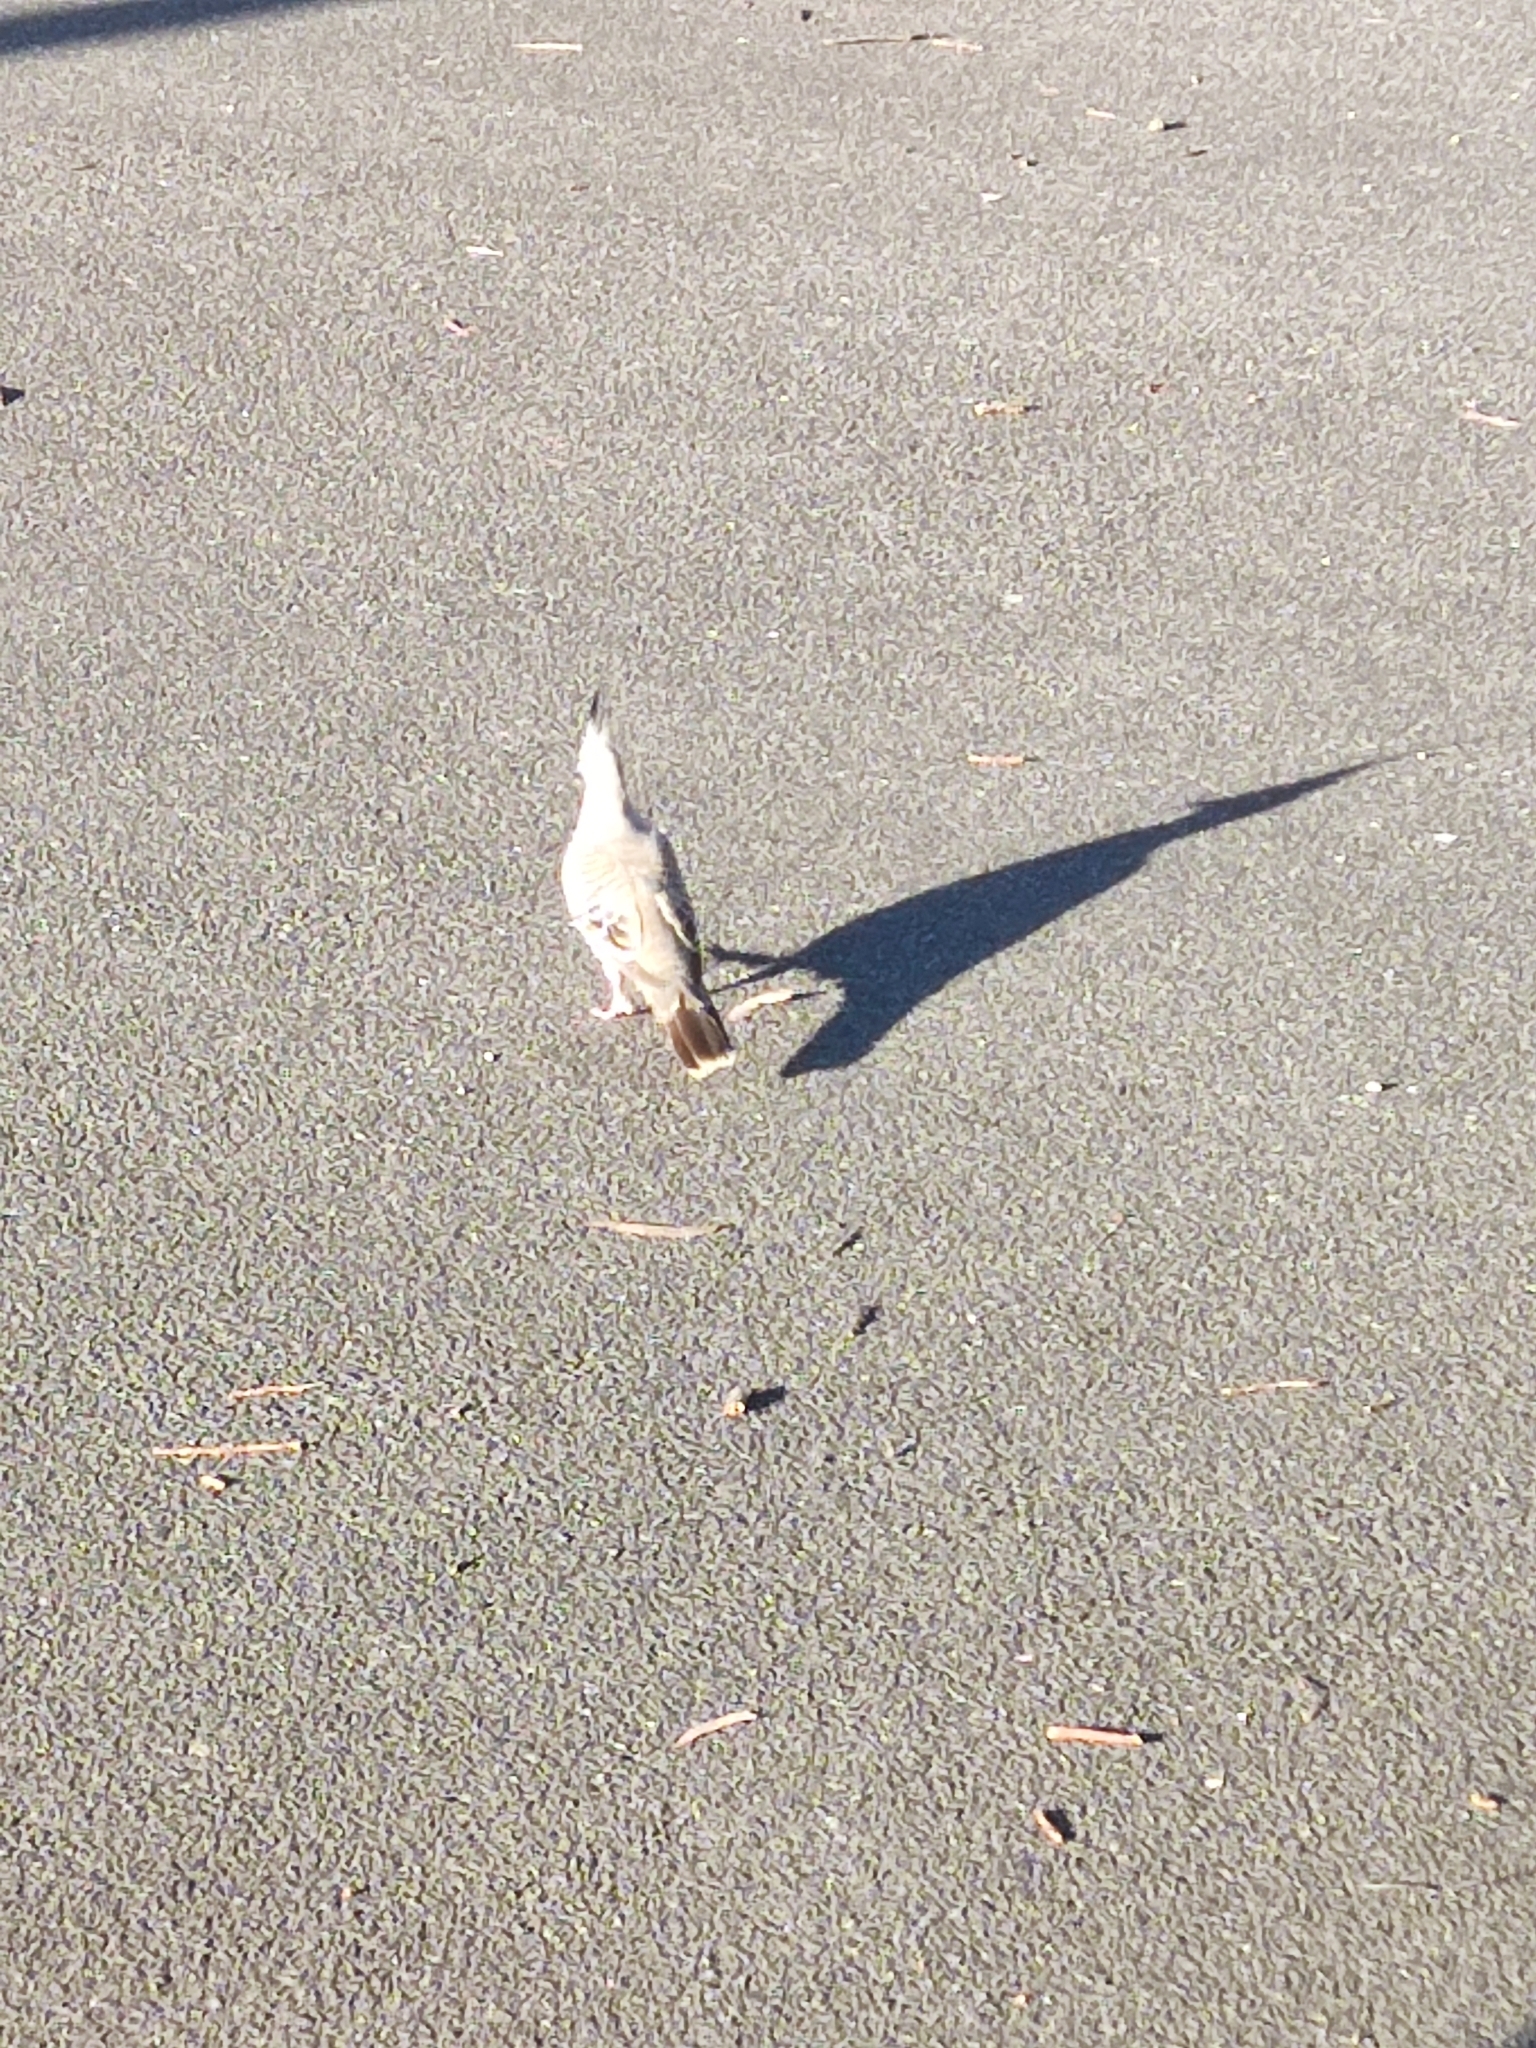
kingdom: Animalia
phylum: Chordata
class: Aves
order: Columbiformes
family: Columbidae
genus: Ocyphaps
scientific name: Ocyphaps lophotes
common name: Crested pigeon
